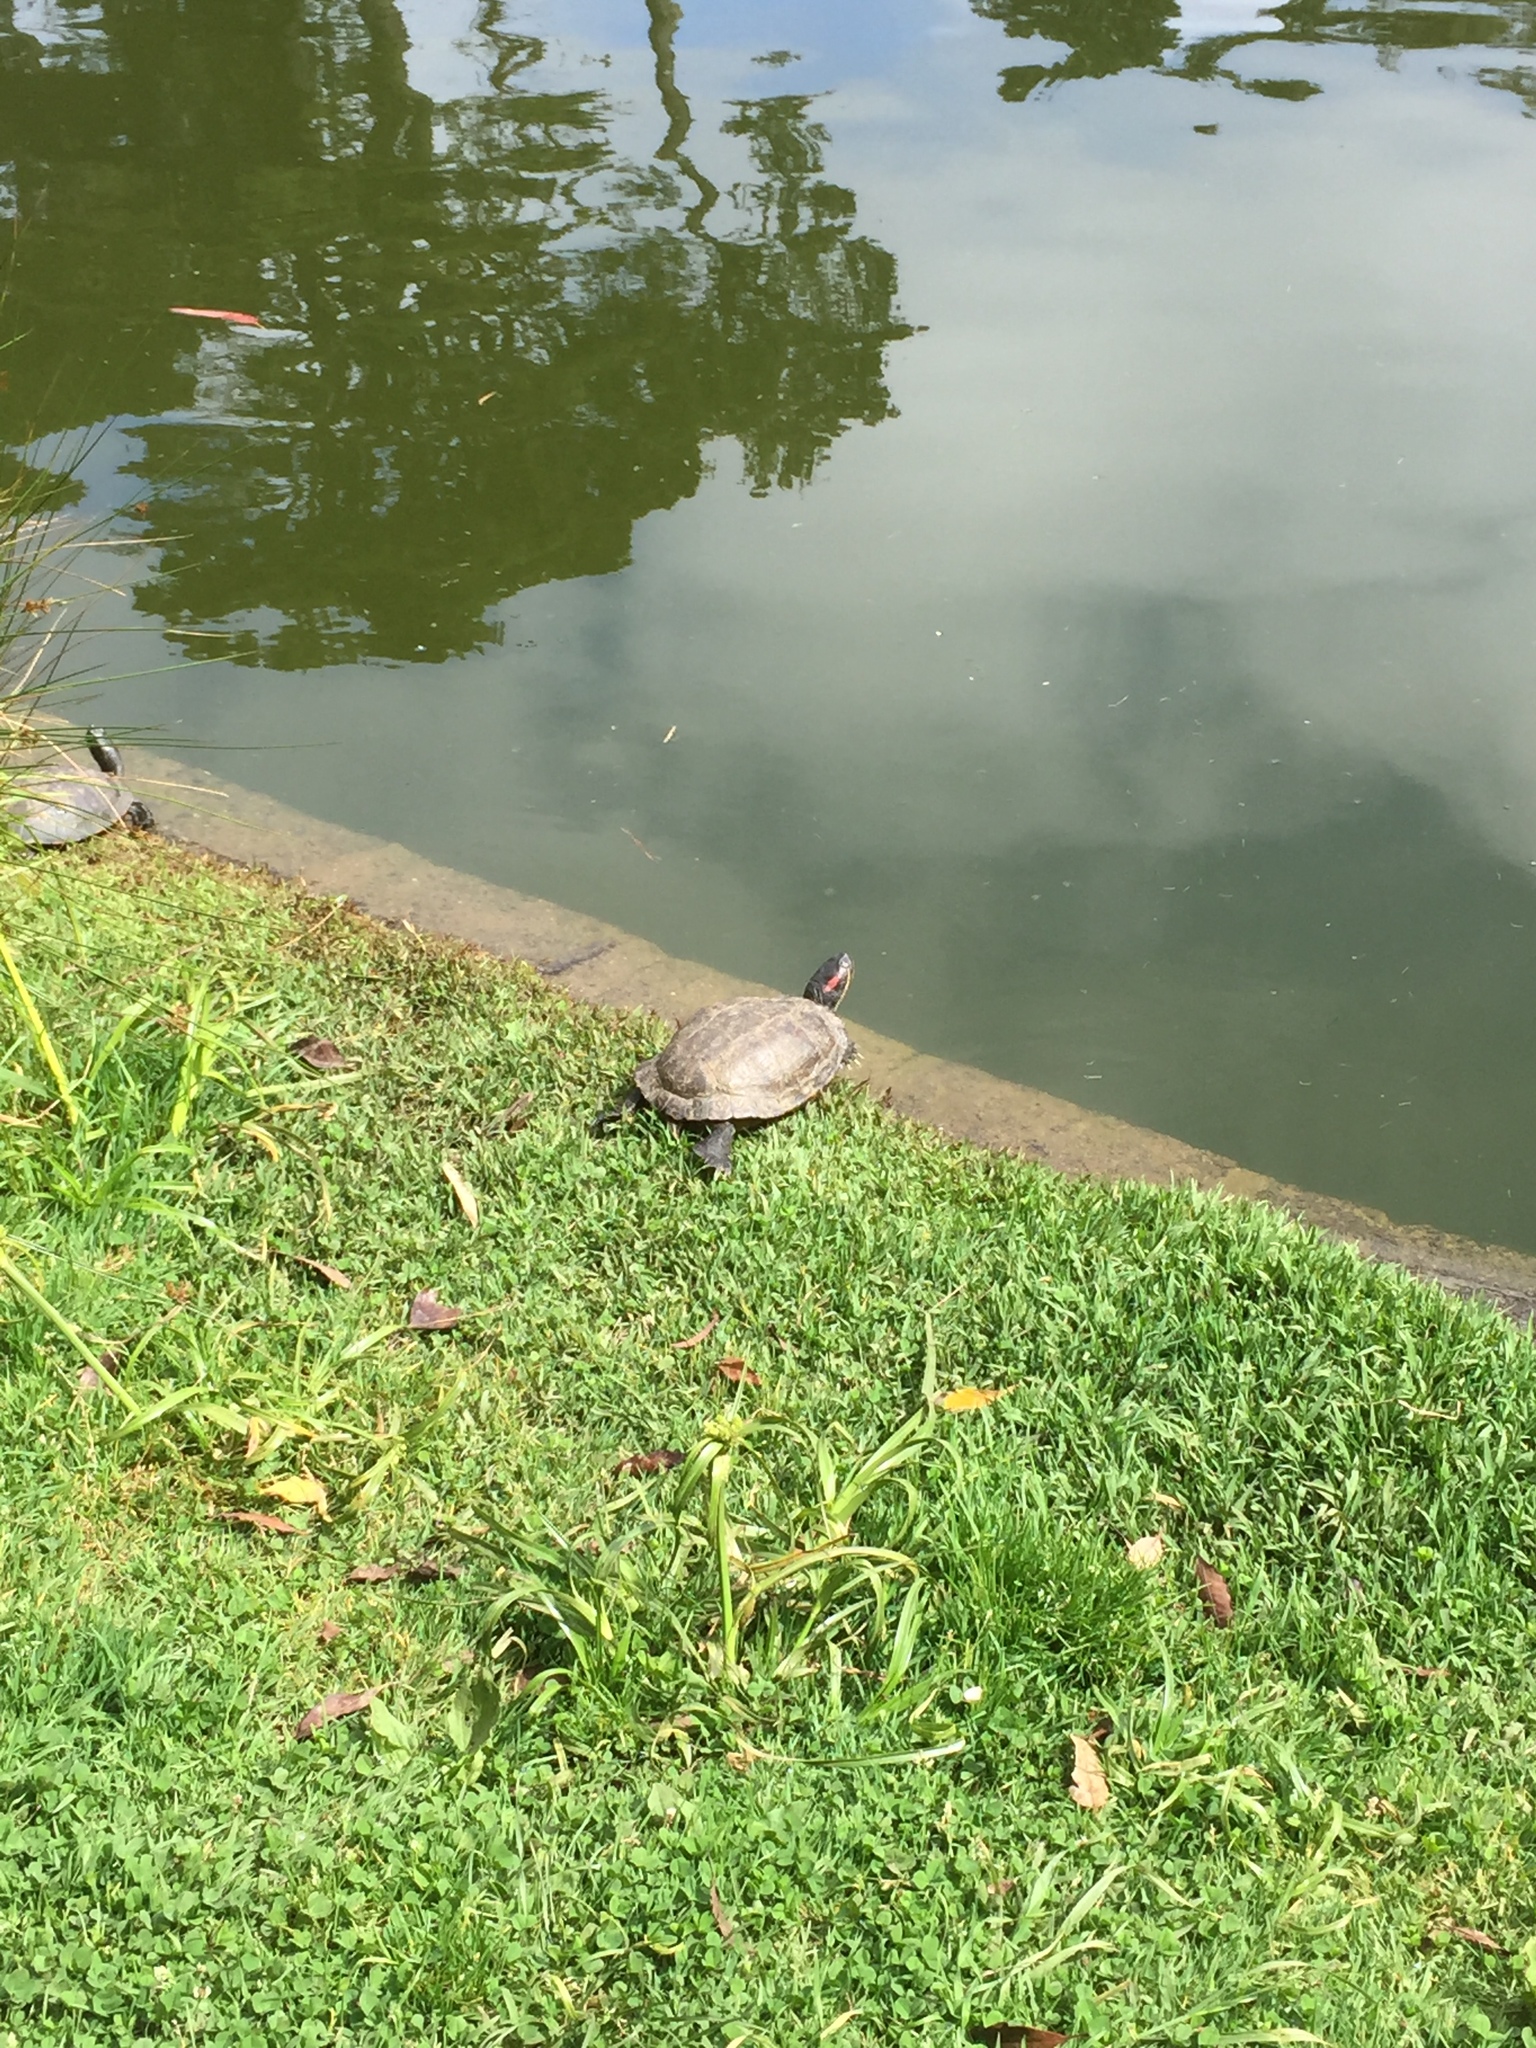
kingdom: Animalia
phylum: Chordata
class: Testudines
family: Emydidae
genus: Trachemys
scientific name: Trachemys scripta
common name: Slider
